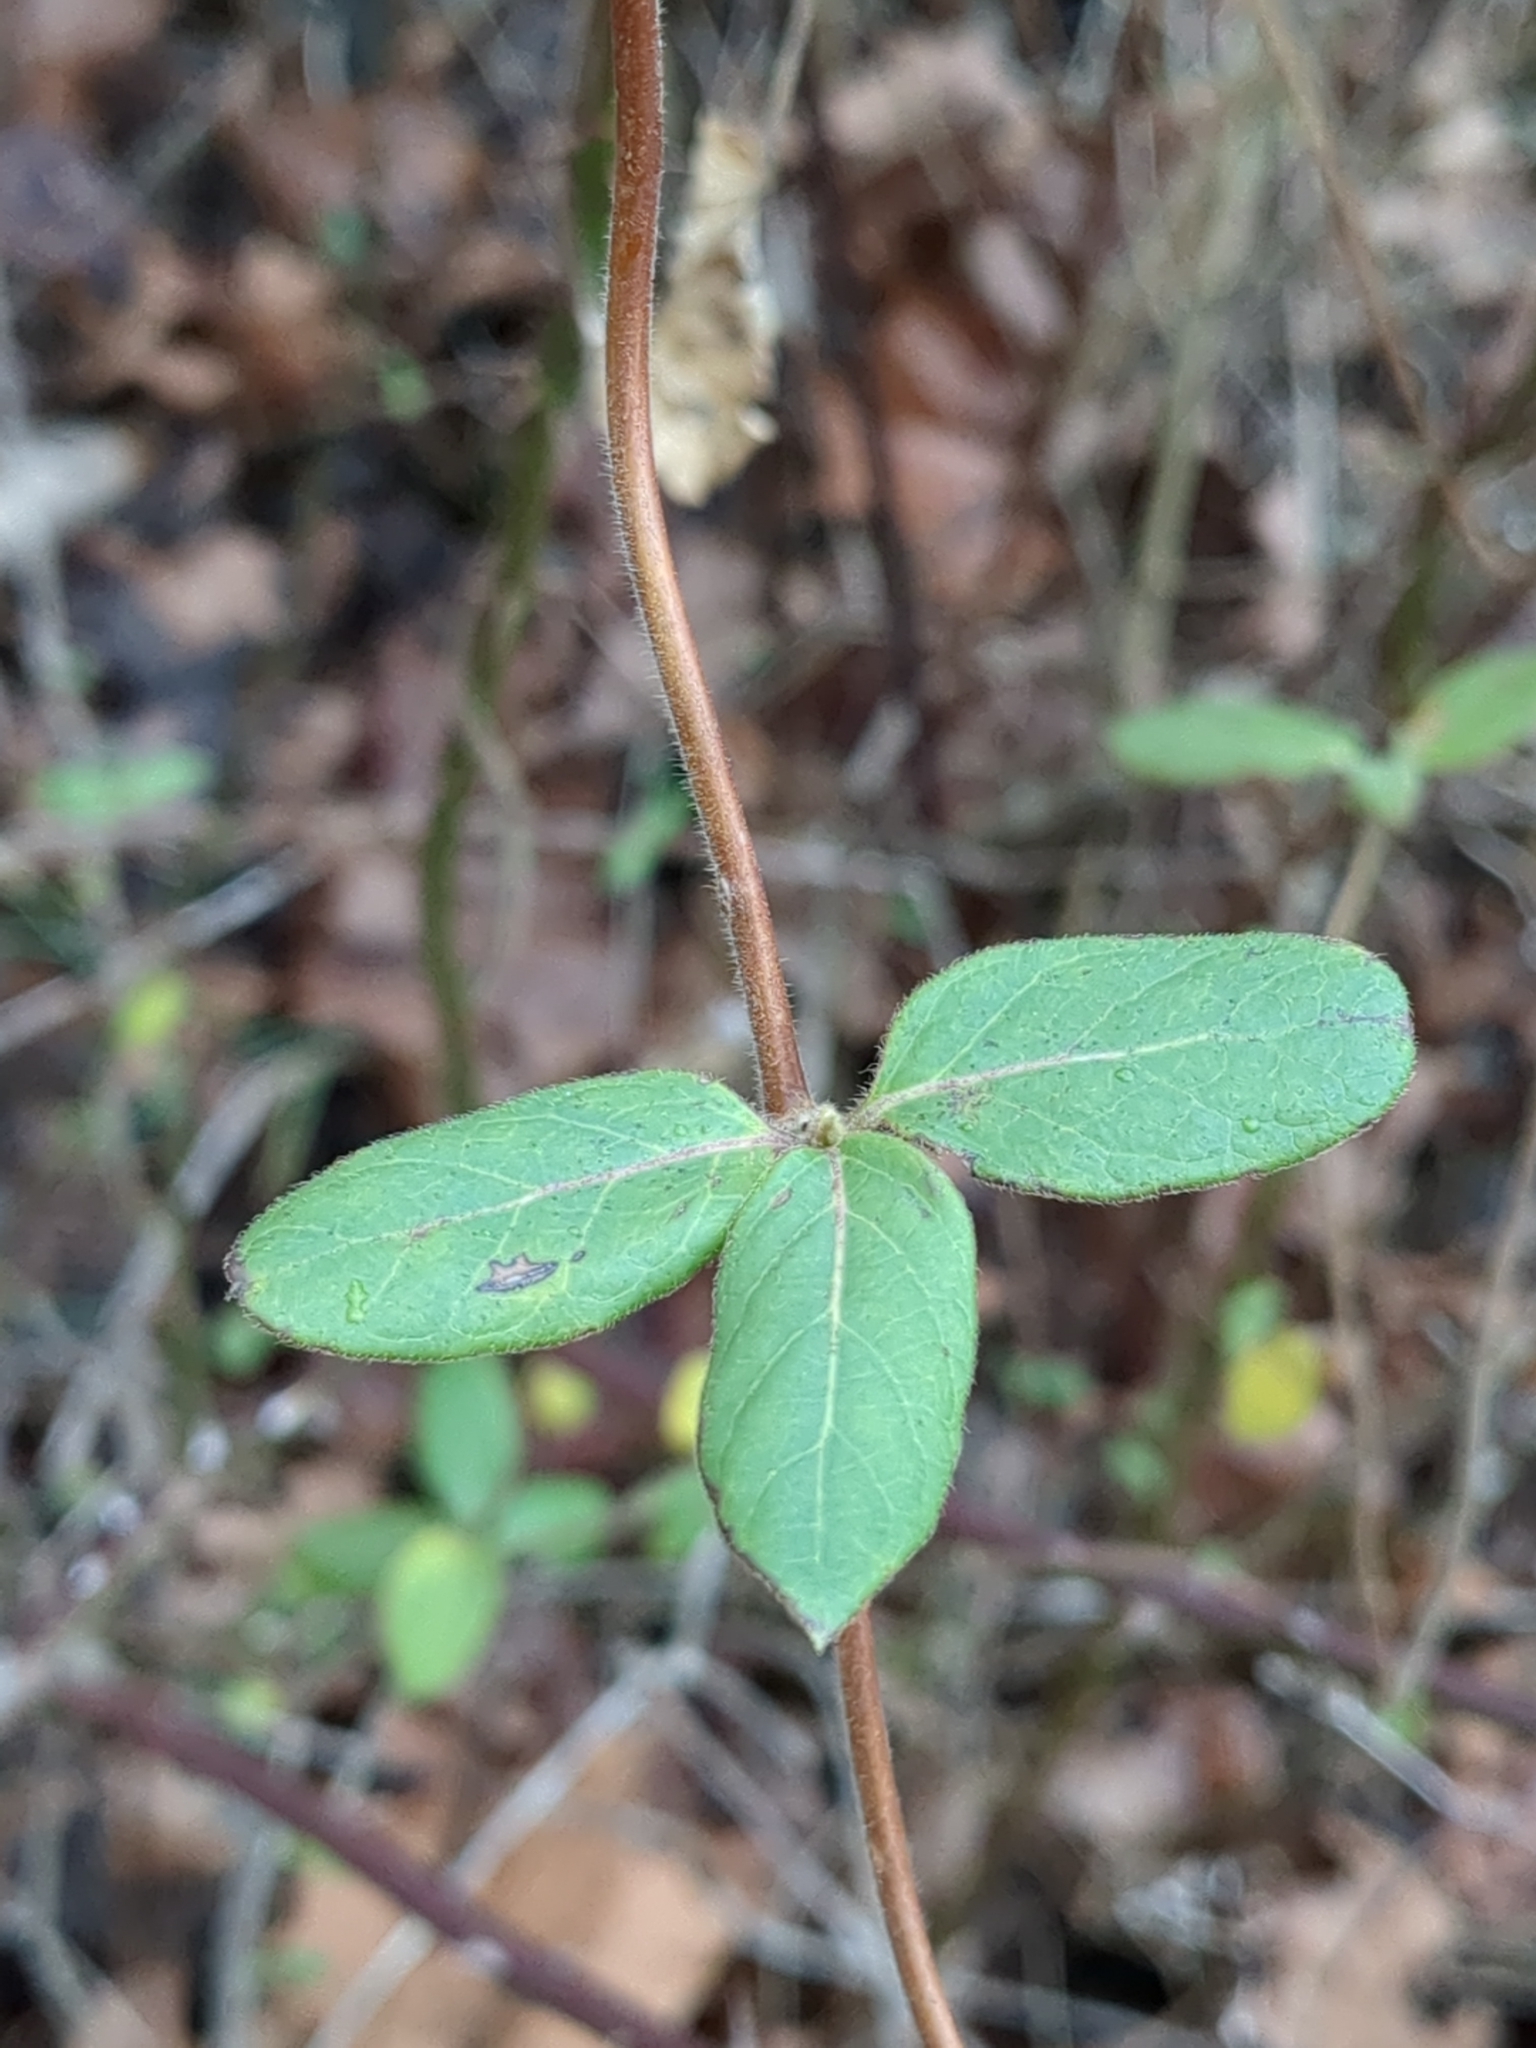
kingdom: Plantae
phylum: Tracheophyta
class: Magnoliopsida
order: Dipsacales
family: Caprifoliaceae
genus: Lonicera
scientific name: Lonicera japonica
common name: Japanese honeysuckle
